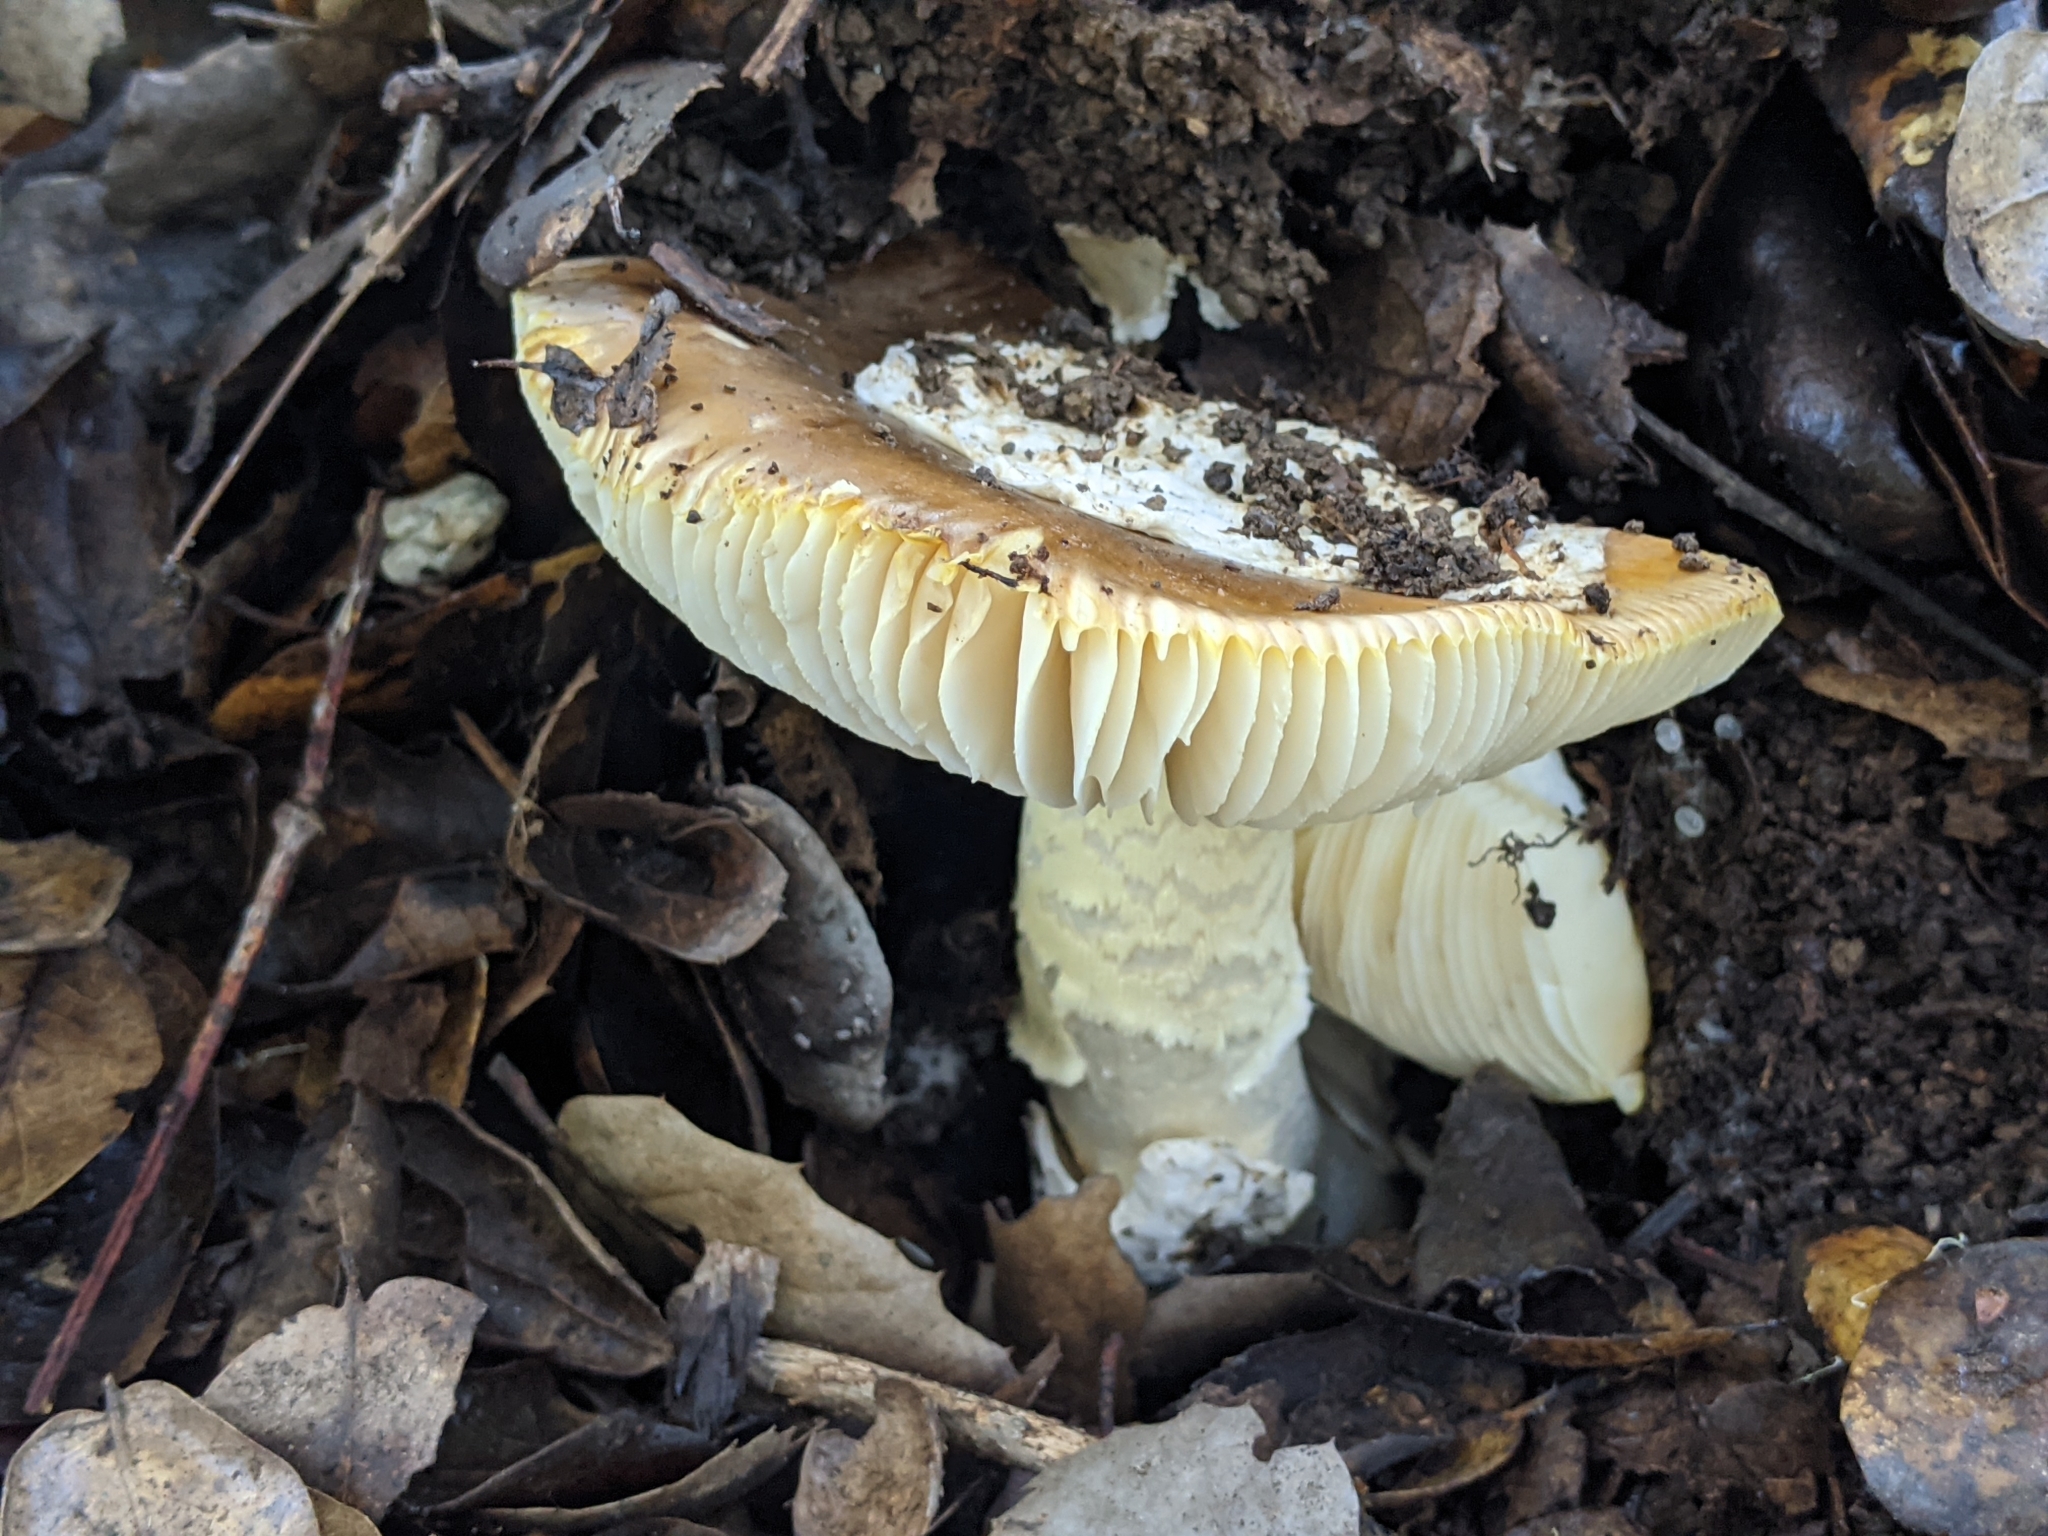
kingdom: Fungi
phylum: Basidiomycota
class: Agaricomycetes
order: Agaricales
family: Amanitaceae
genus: Amanita
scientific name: Amanita calyptroderma
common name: Coccora
